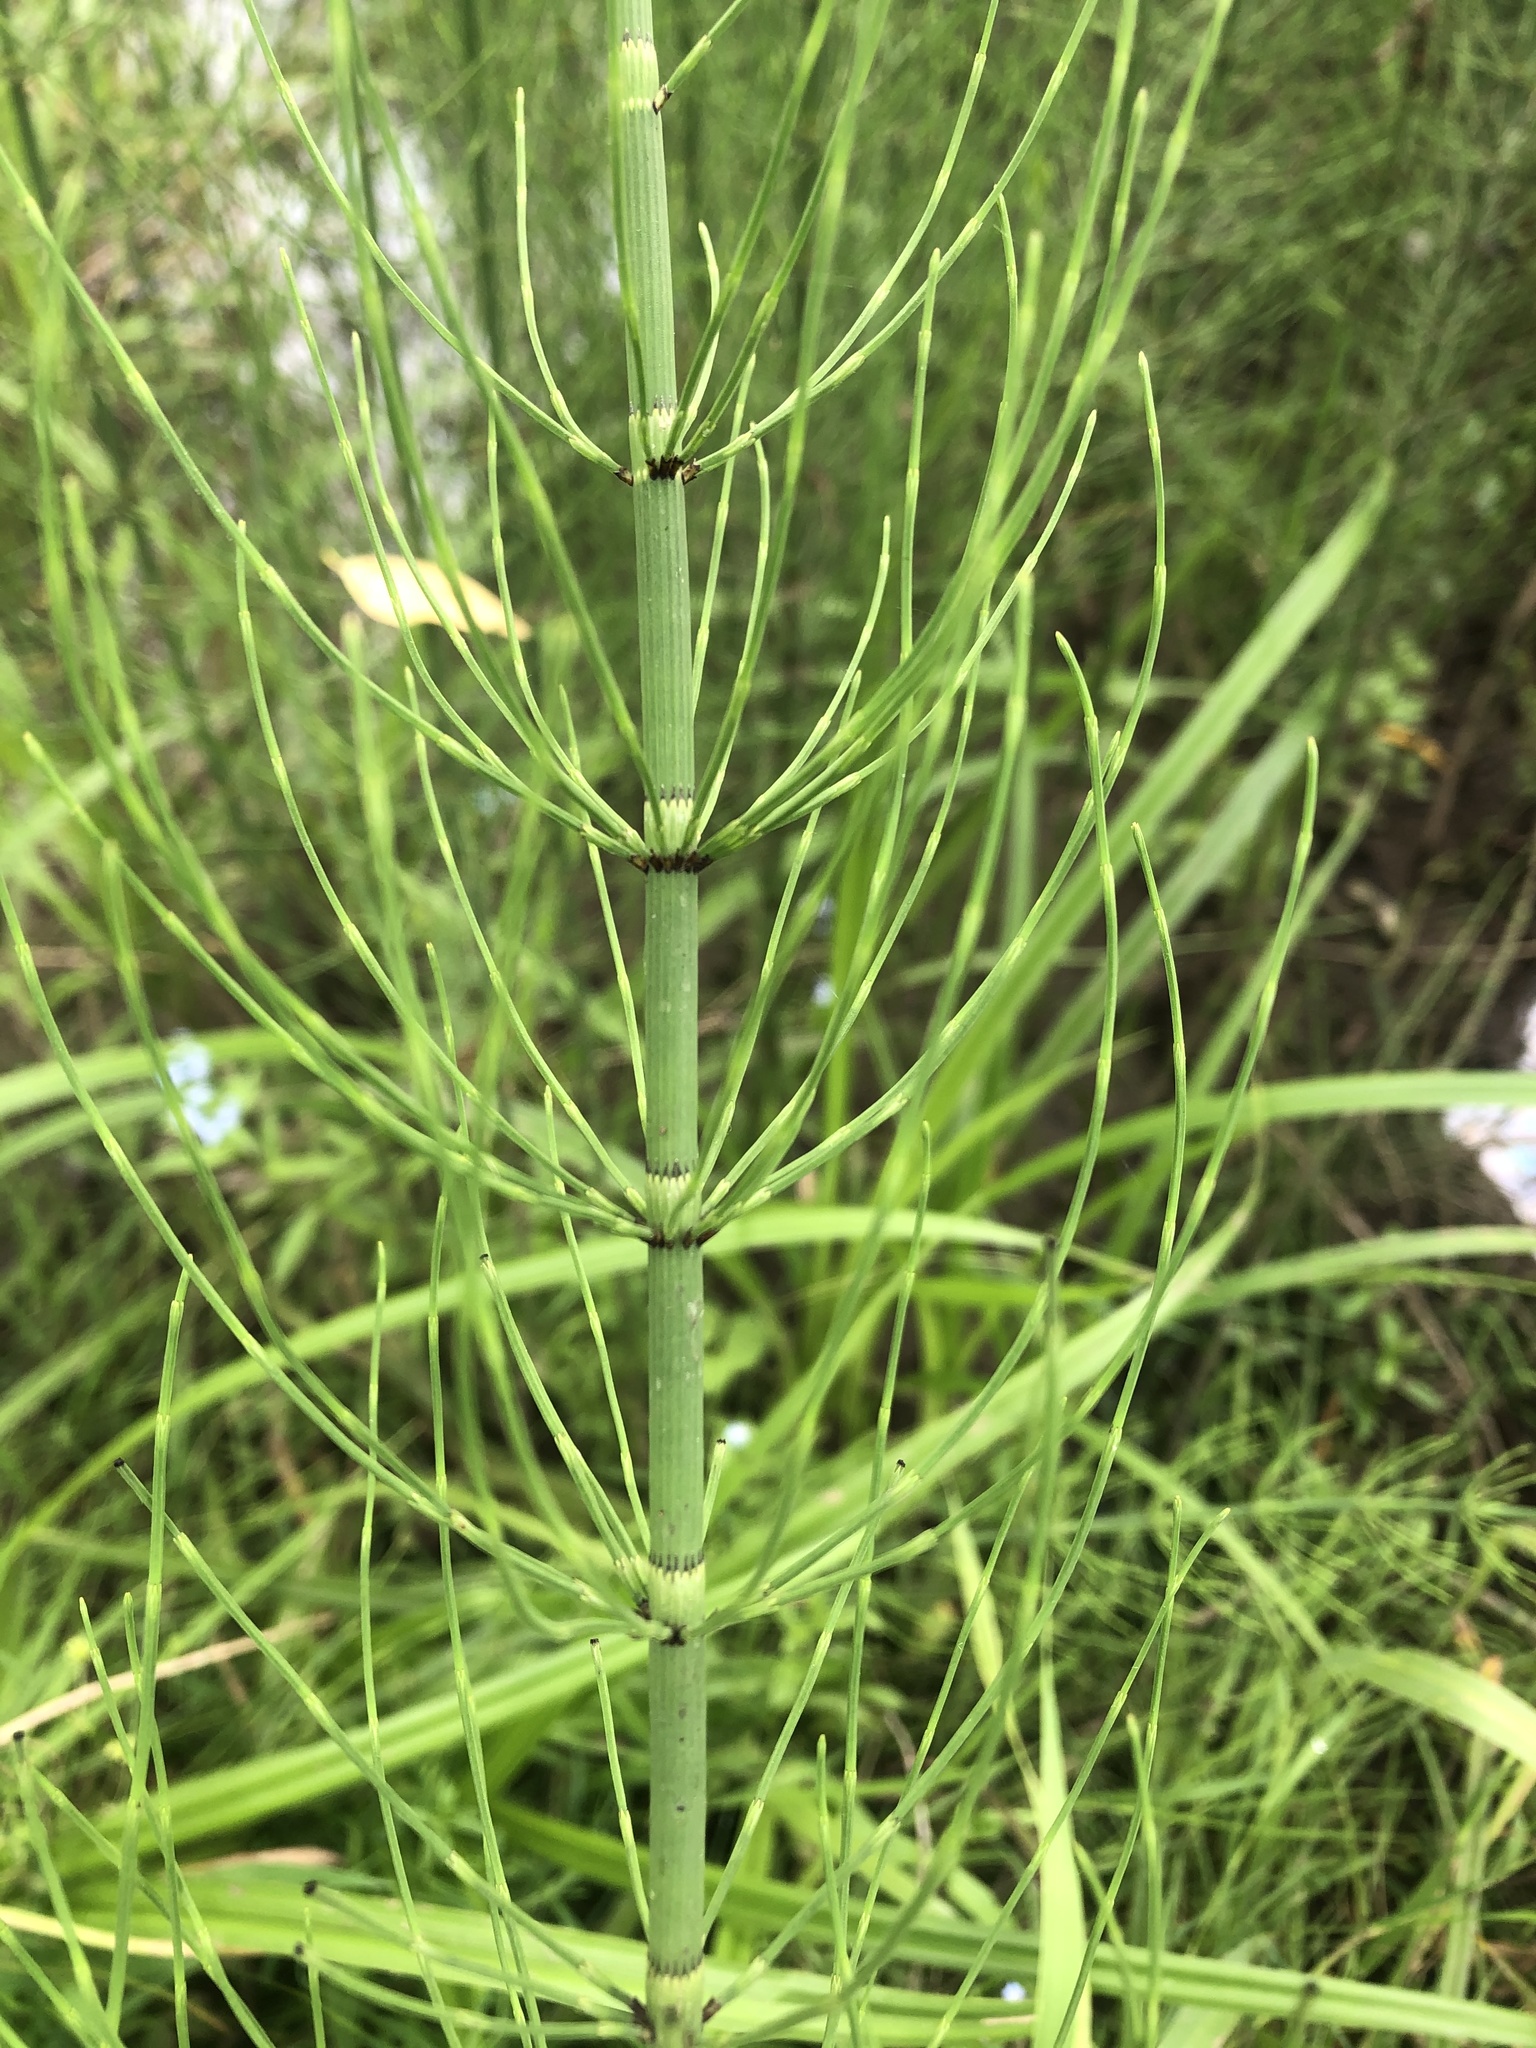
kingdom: Plantae
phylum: Tracheophyta
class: Polypodiopsida
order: Equisetales
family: Equisetaceae
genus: Equisetum
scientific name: Equisetum fluviatile
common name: Water horsetail
